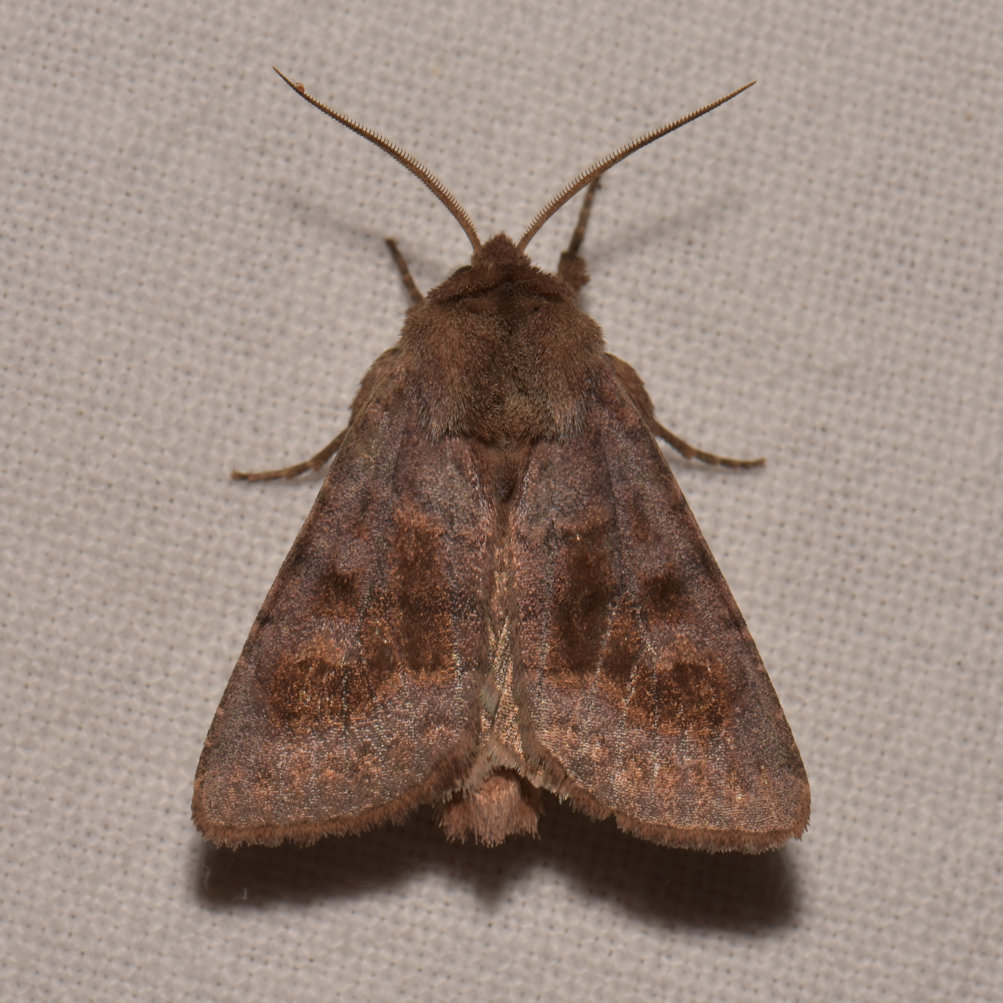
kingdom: Animalia
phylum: Arthropoda
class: Insecta
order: Lepidoptera
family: Noctuidae
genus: Nephelodes
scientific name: Nephelodes minians
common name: Bronzed cutworm
